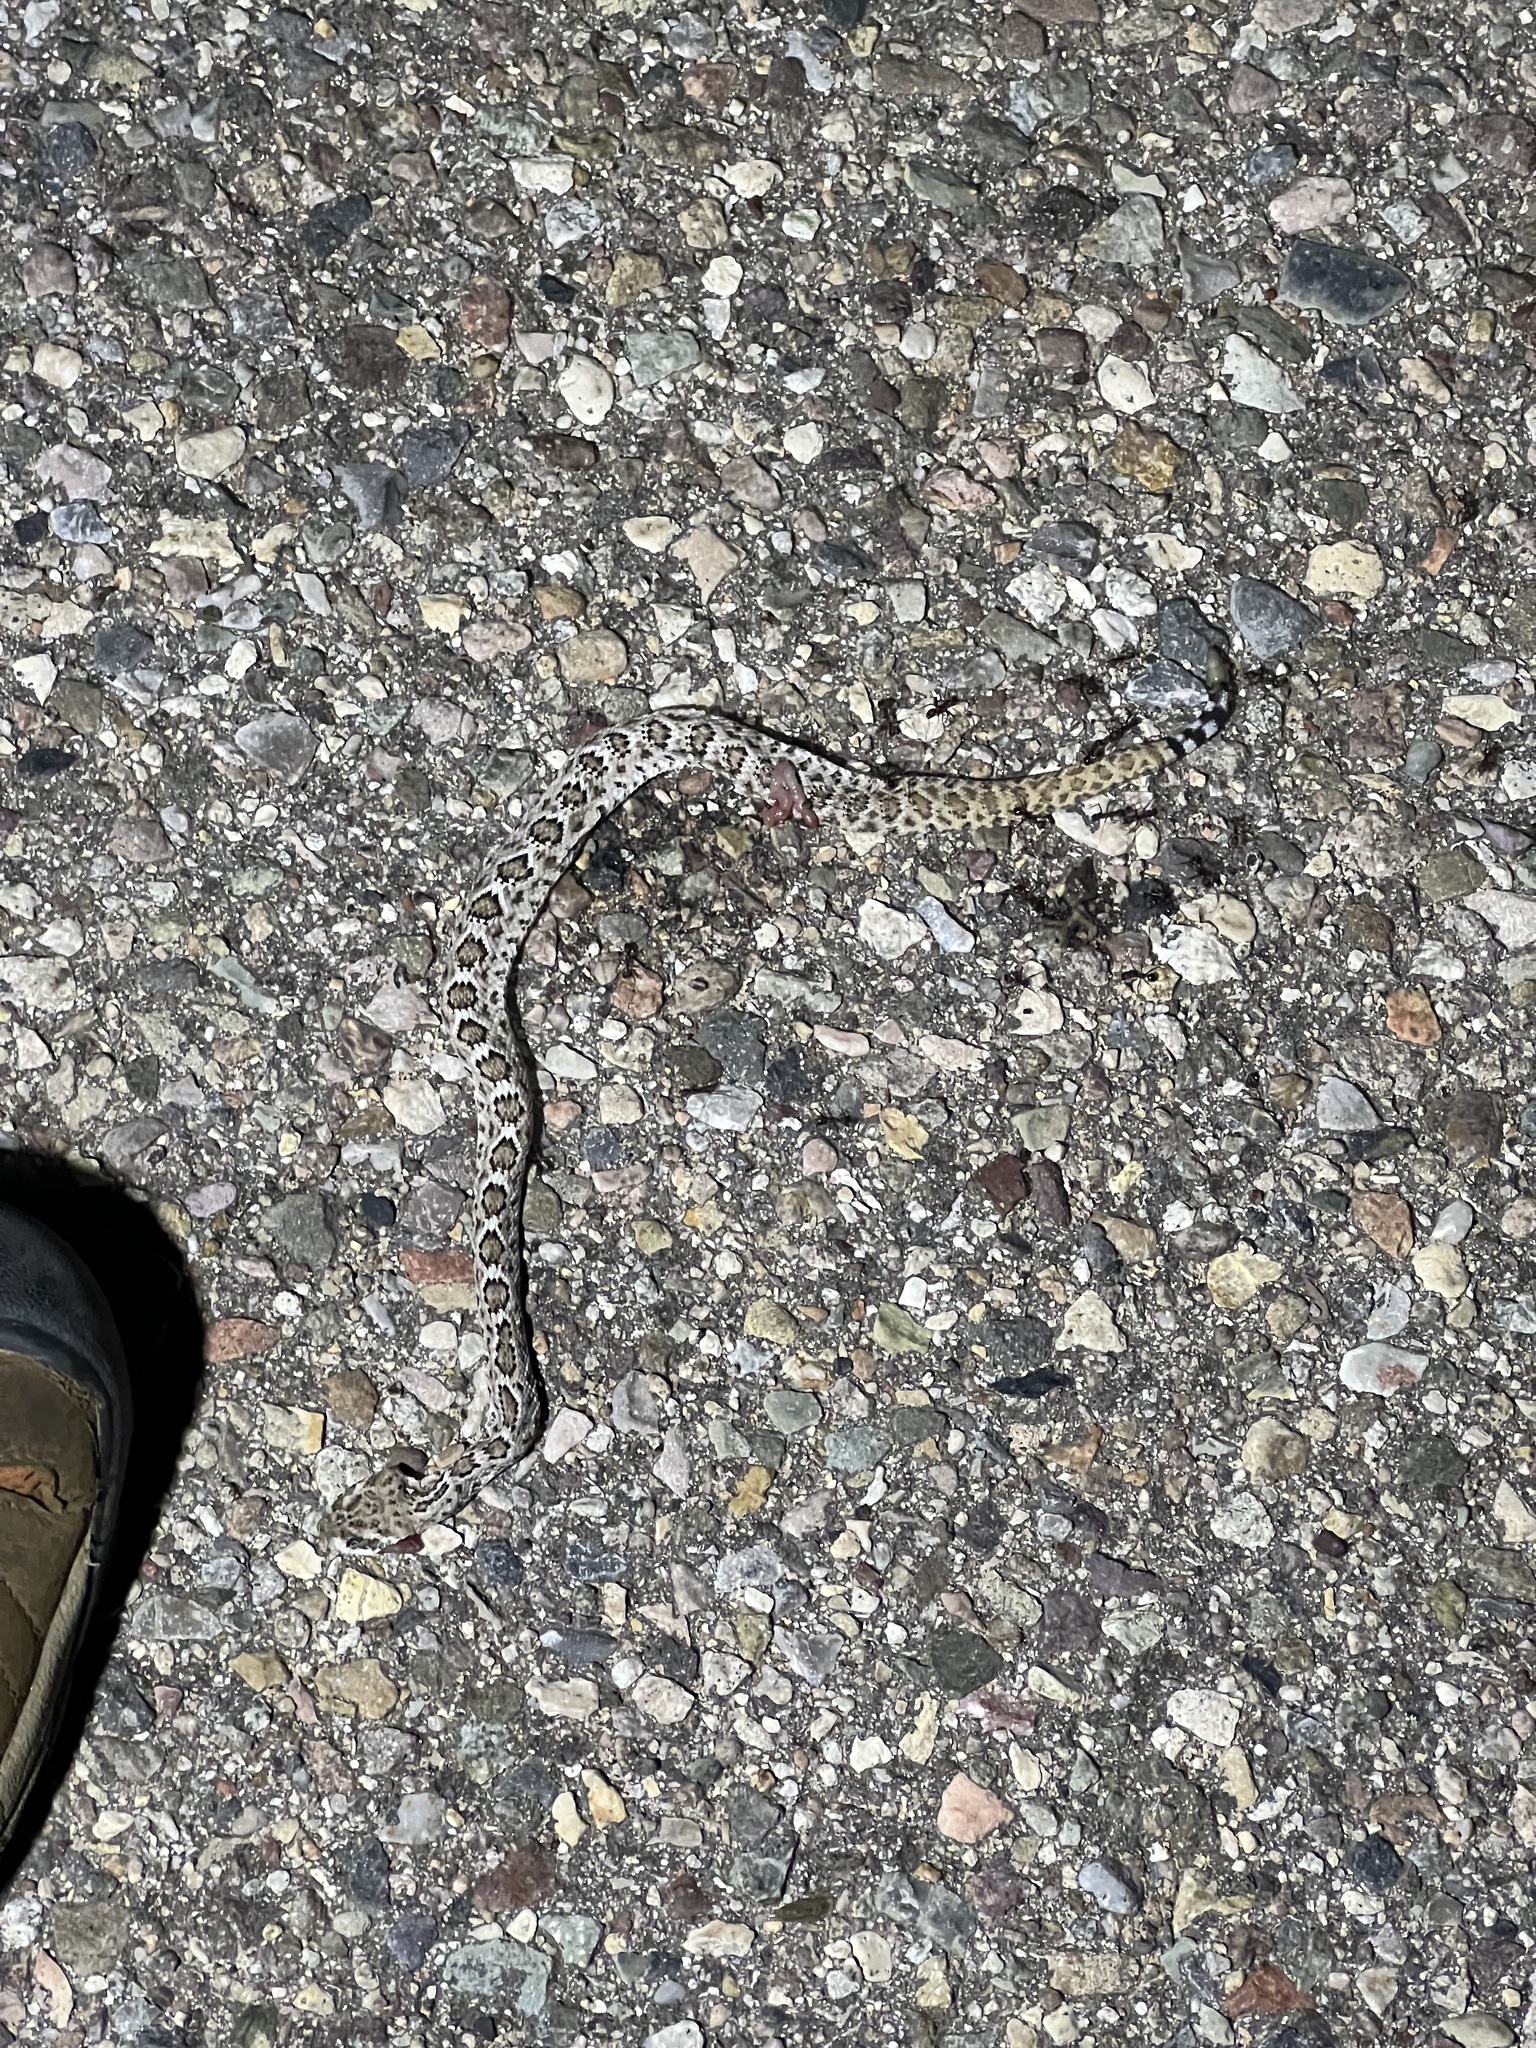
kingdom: Animalia
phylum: Chordata
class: Squamata
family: Viperidae
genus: Crotalus
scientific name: Crotalus atrox
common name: Western diamond-backed rattlesnake
